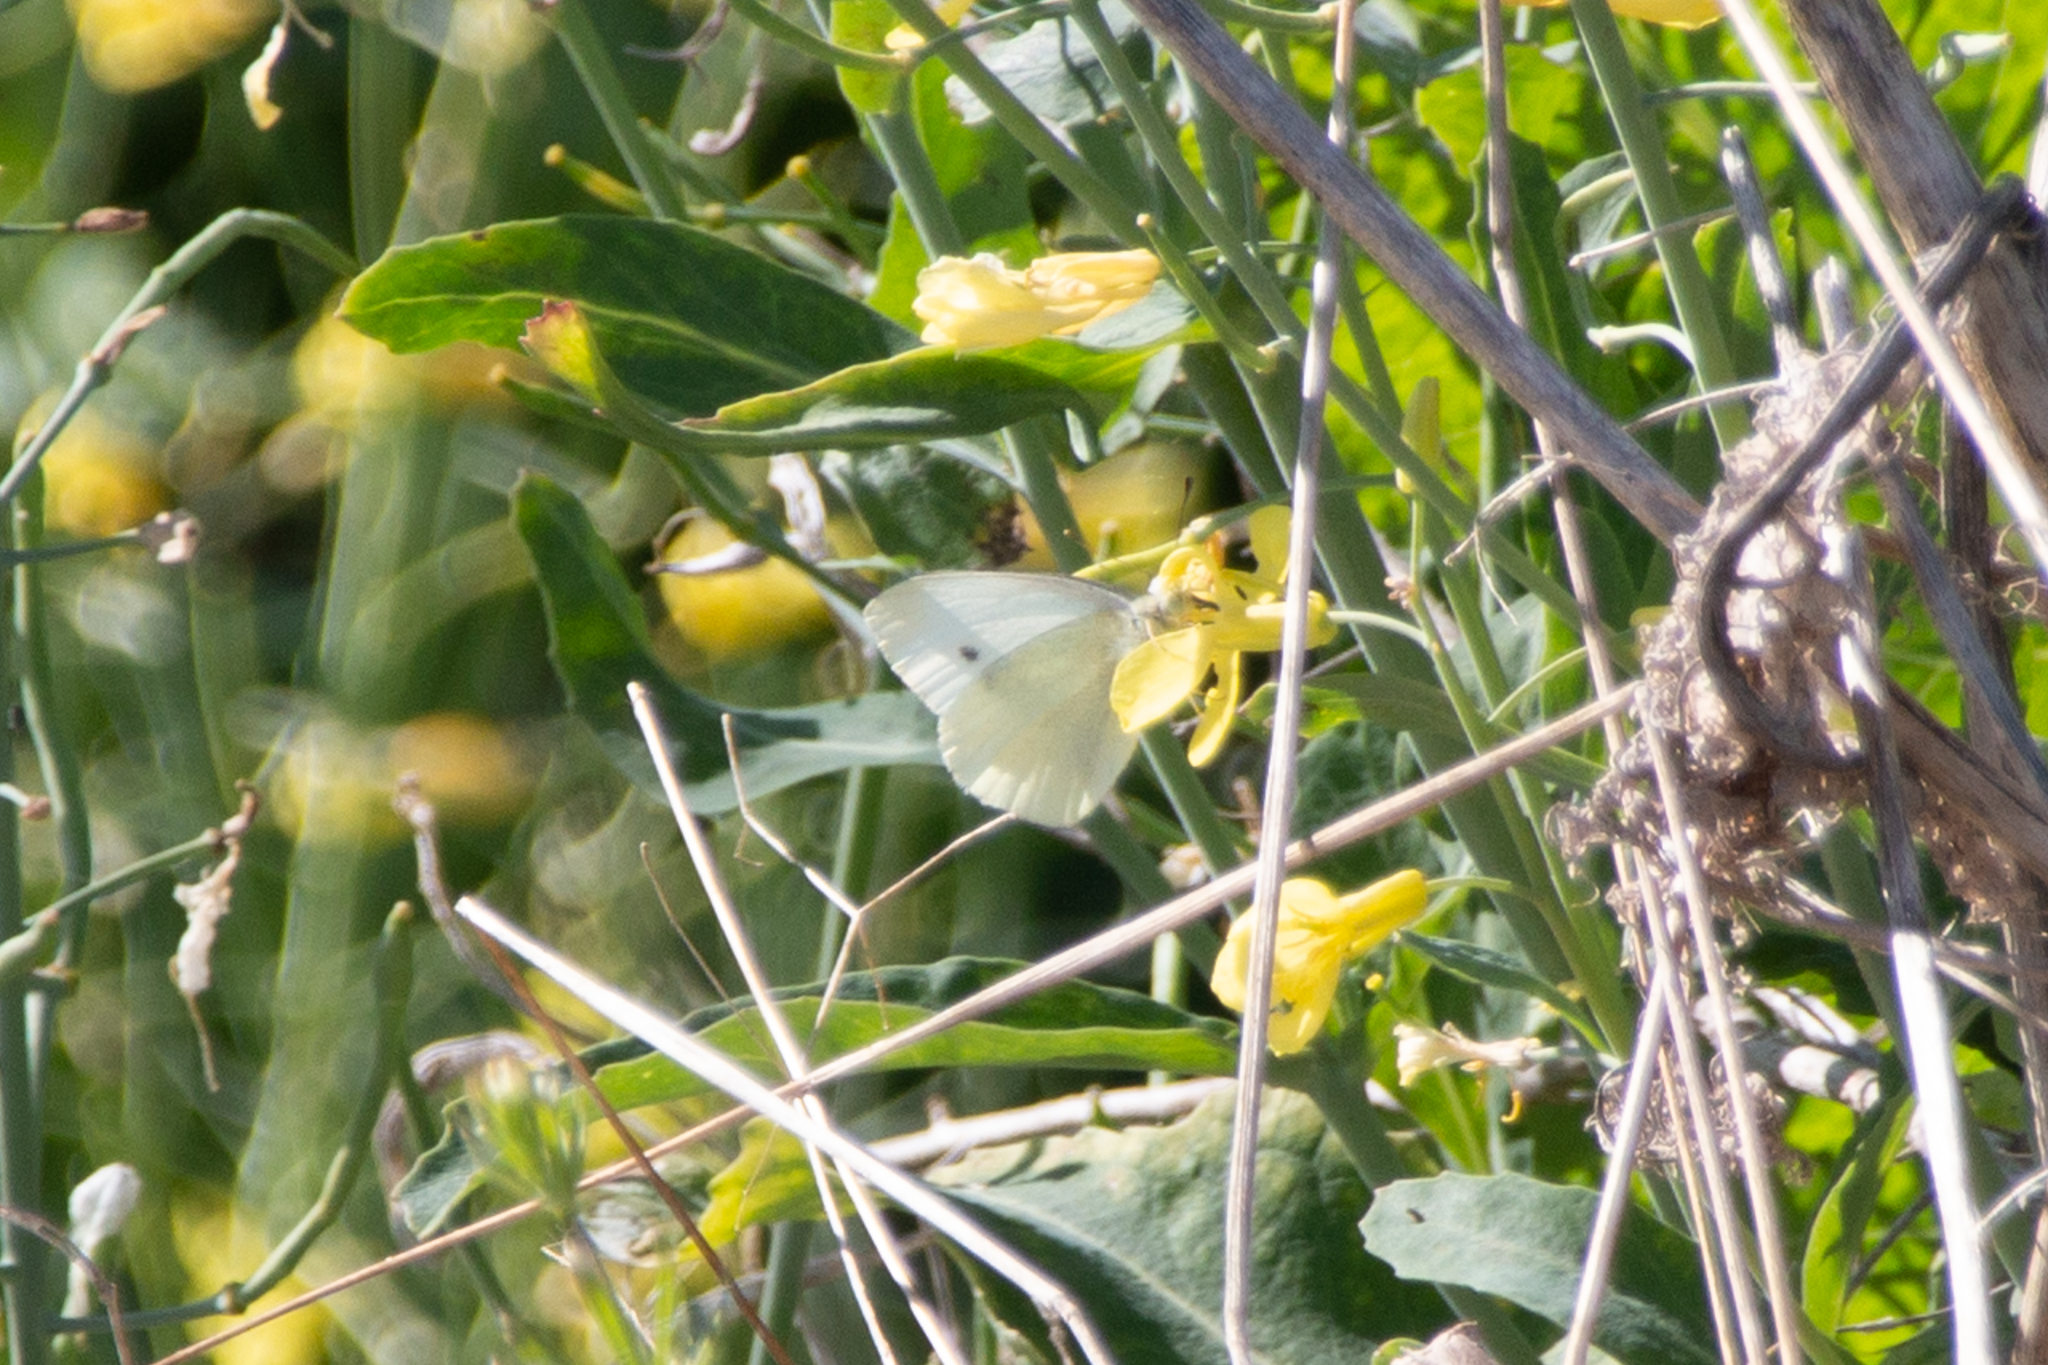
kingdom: Animalia
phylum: Arthropoda
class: Insecta
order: Lepidoptera
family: Pieridae
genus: Pieris
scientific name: Pieris rapae
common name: Small white
